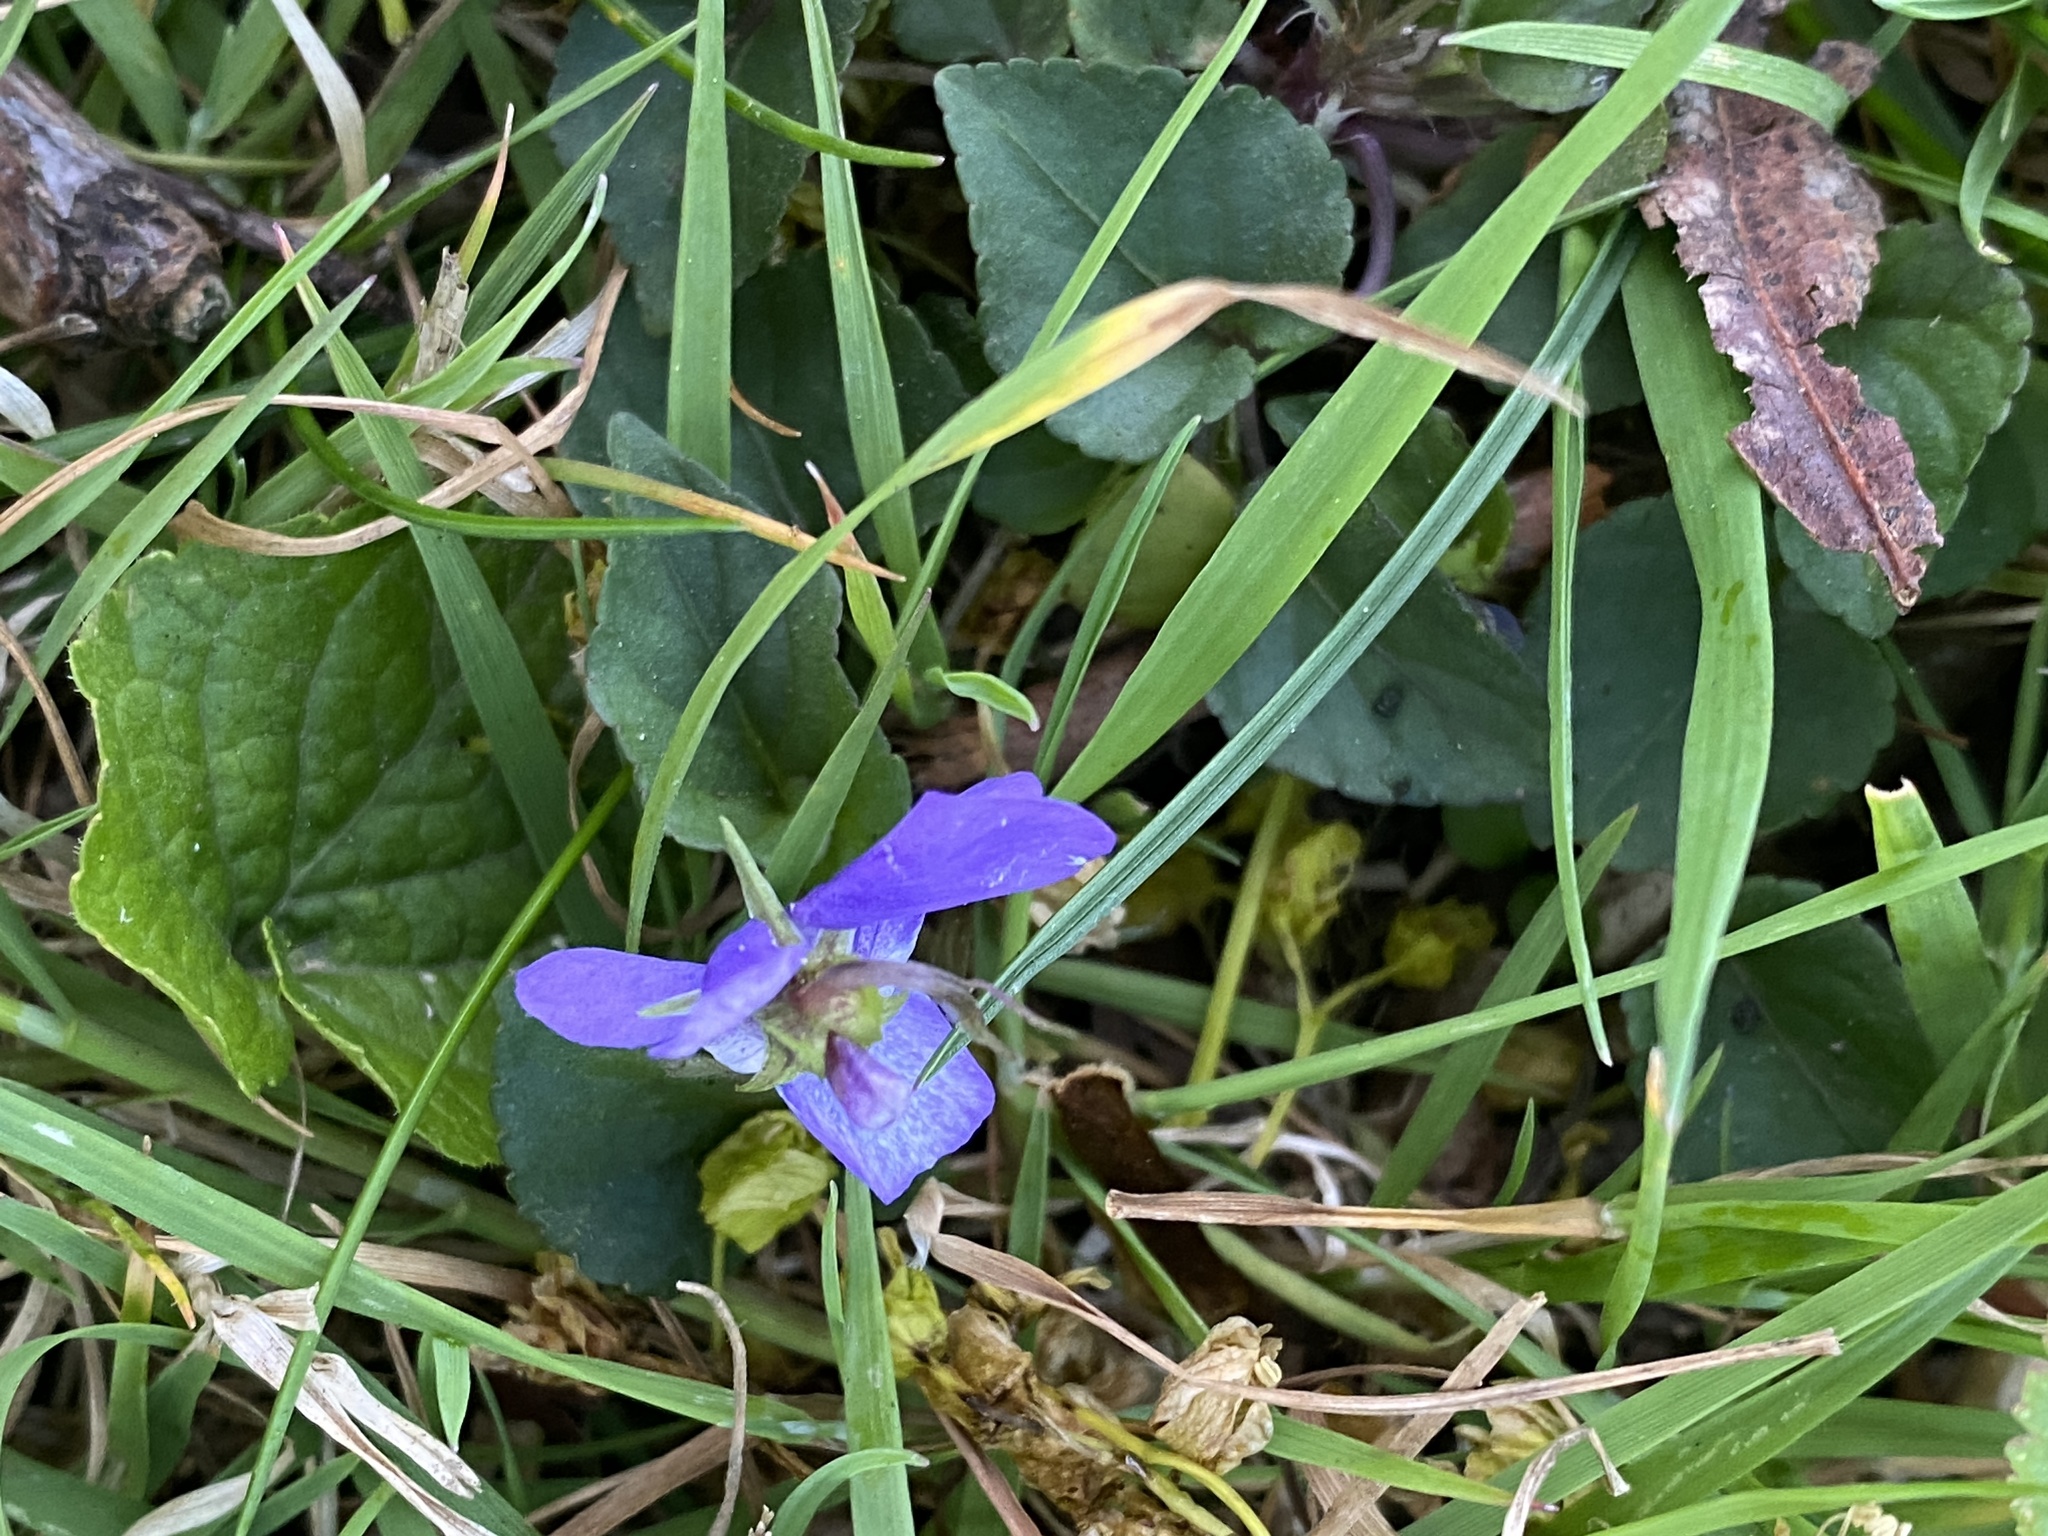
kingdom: Plantae
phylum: Tracheophyta
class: Magnoliopsida
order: Malpighiales
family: Violaceae
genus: Viola
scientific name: Viola riviniana
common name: Common dog-violet
